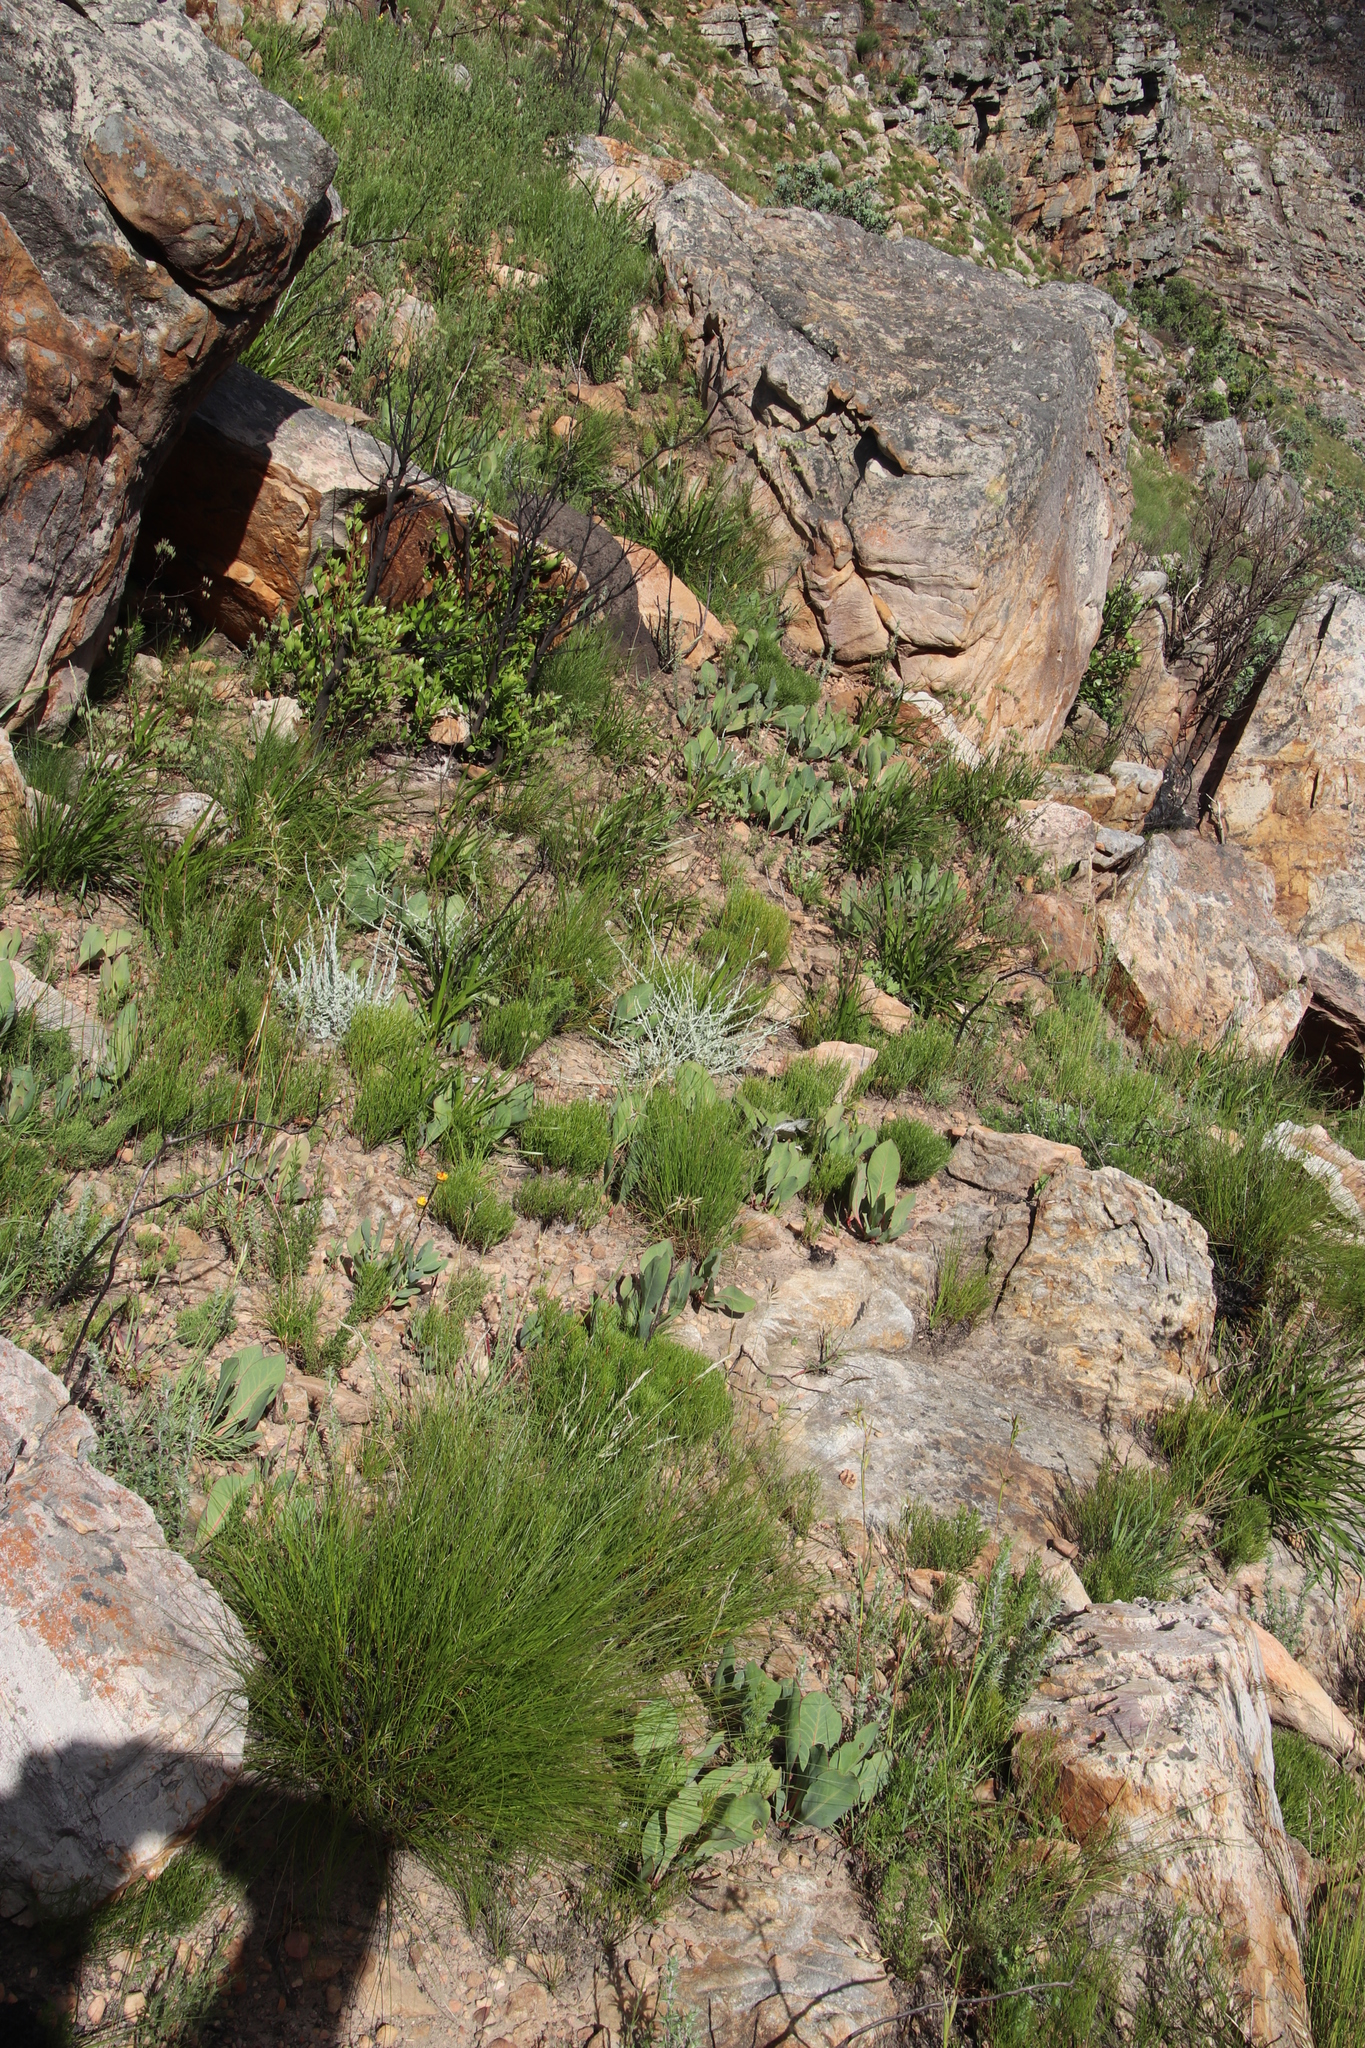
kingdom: Plantae
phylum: Tracheophyta
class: Magnoliopsida
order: Proteales
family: Proteaceae
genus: Protea
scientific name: Protea acaulos
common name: Common ground sugarbush
